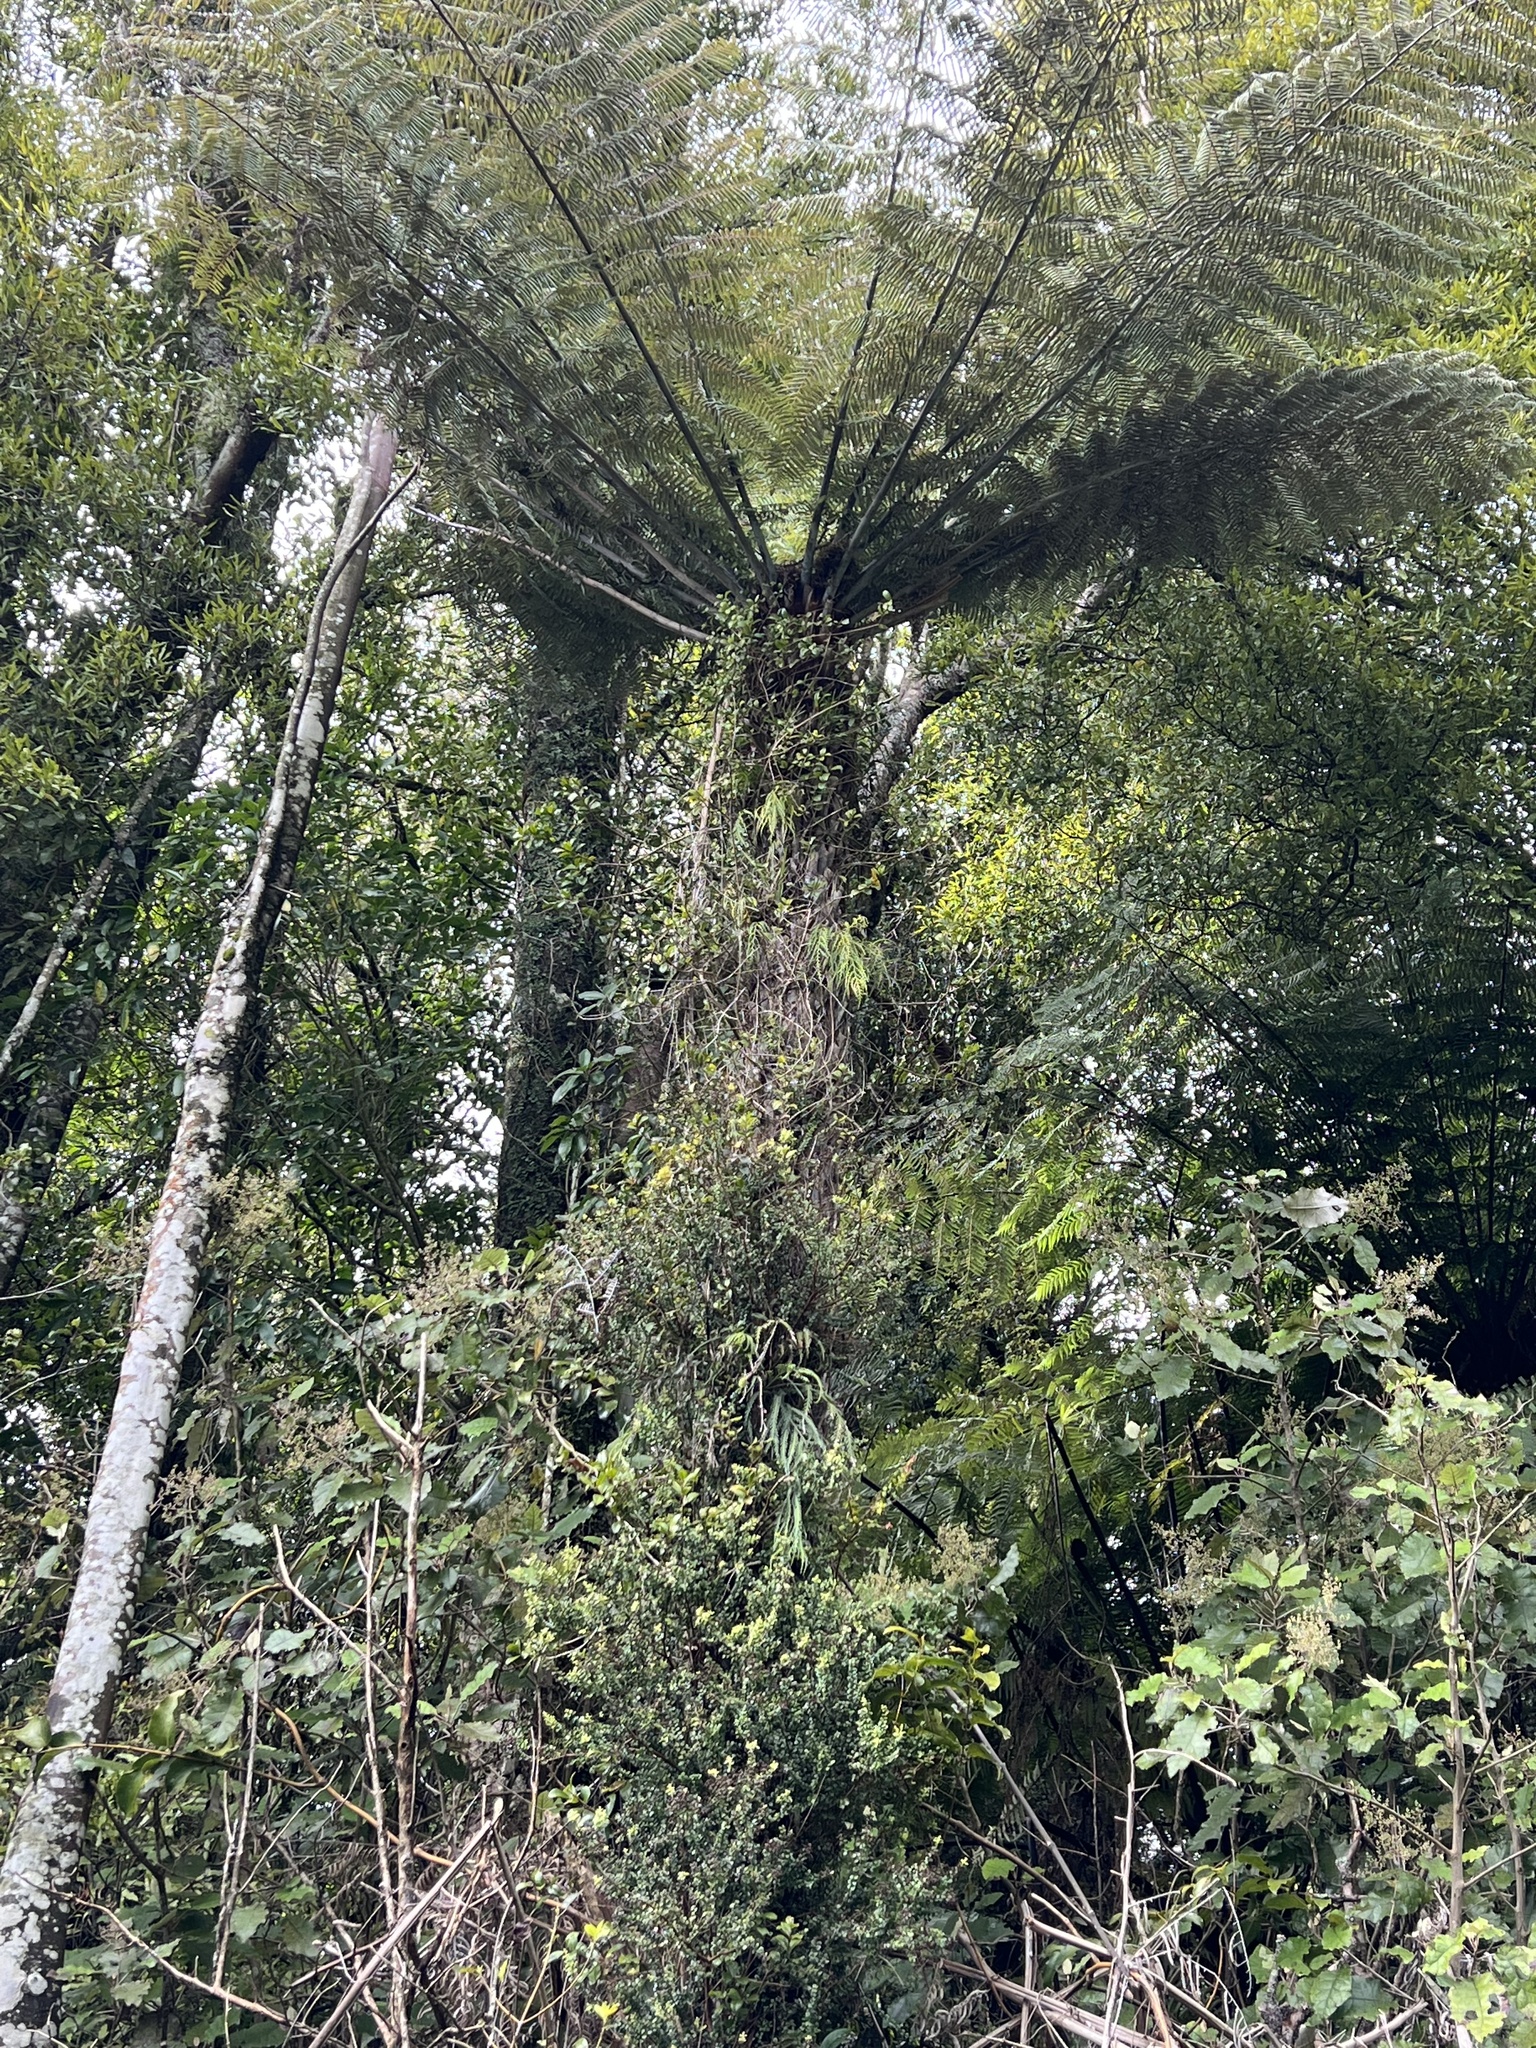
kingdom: Plantae
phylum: Tracheophyta
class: Polypodiopsida
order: Cyatheales
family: Cyatheaceae
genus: Alsophila
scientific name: Alsophila dealbata
